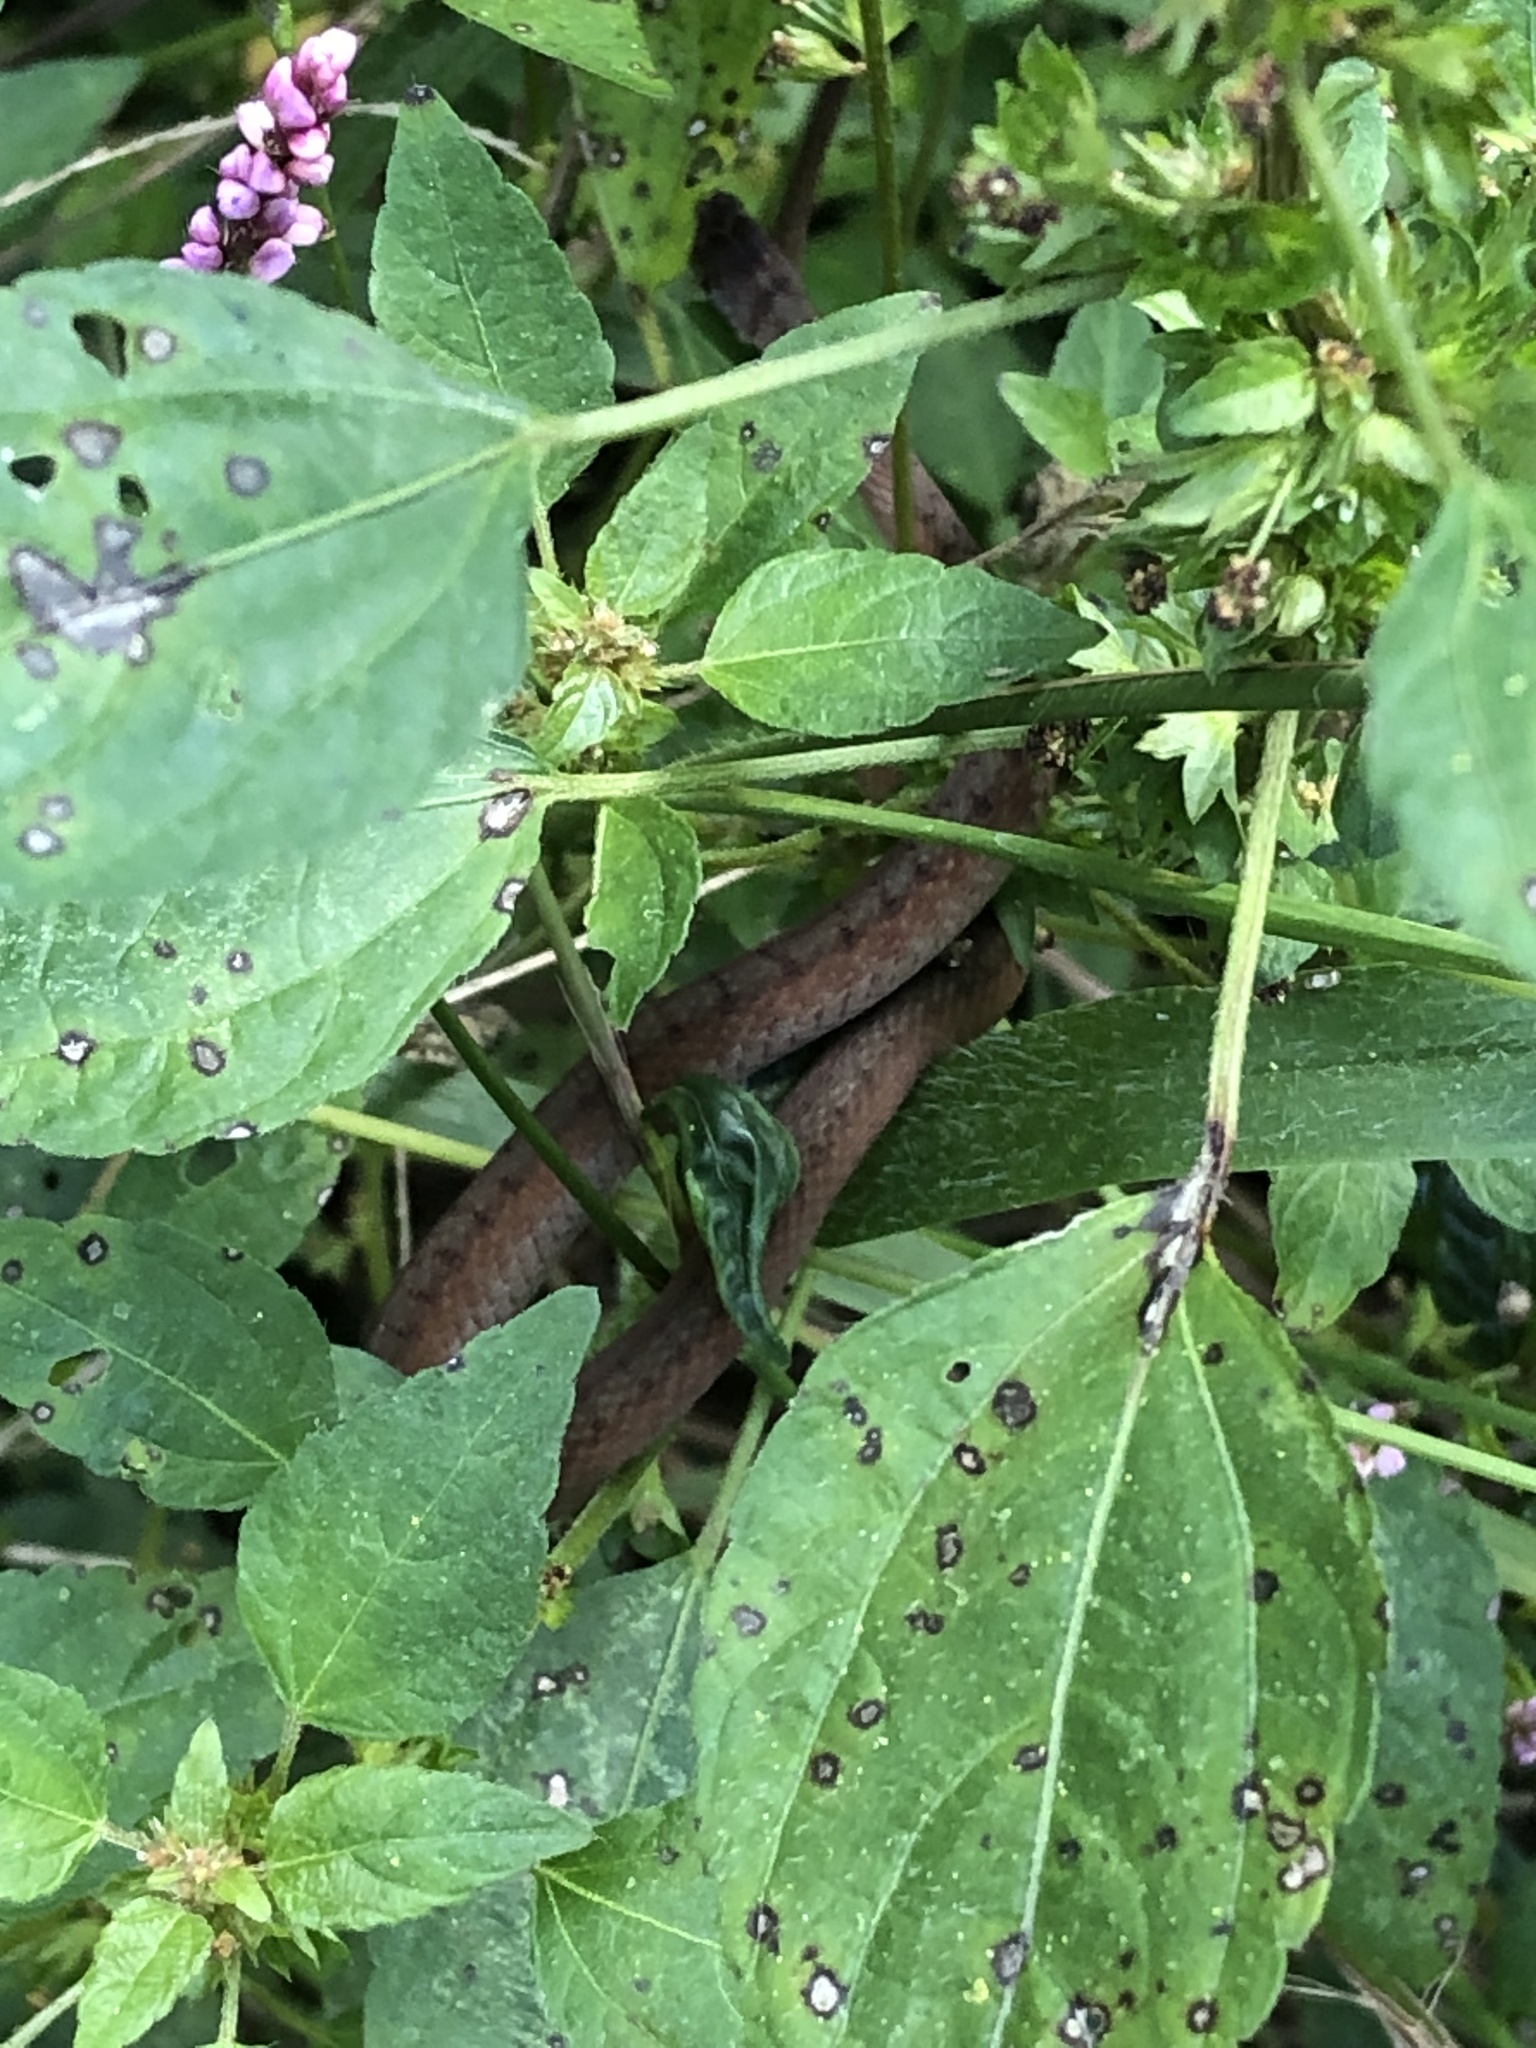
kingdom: Animalia
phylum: Chordata
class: Squamata
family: Colubridae
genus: Storeria
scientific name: Storeria dekayi
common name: (dekay’s) brown snake
